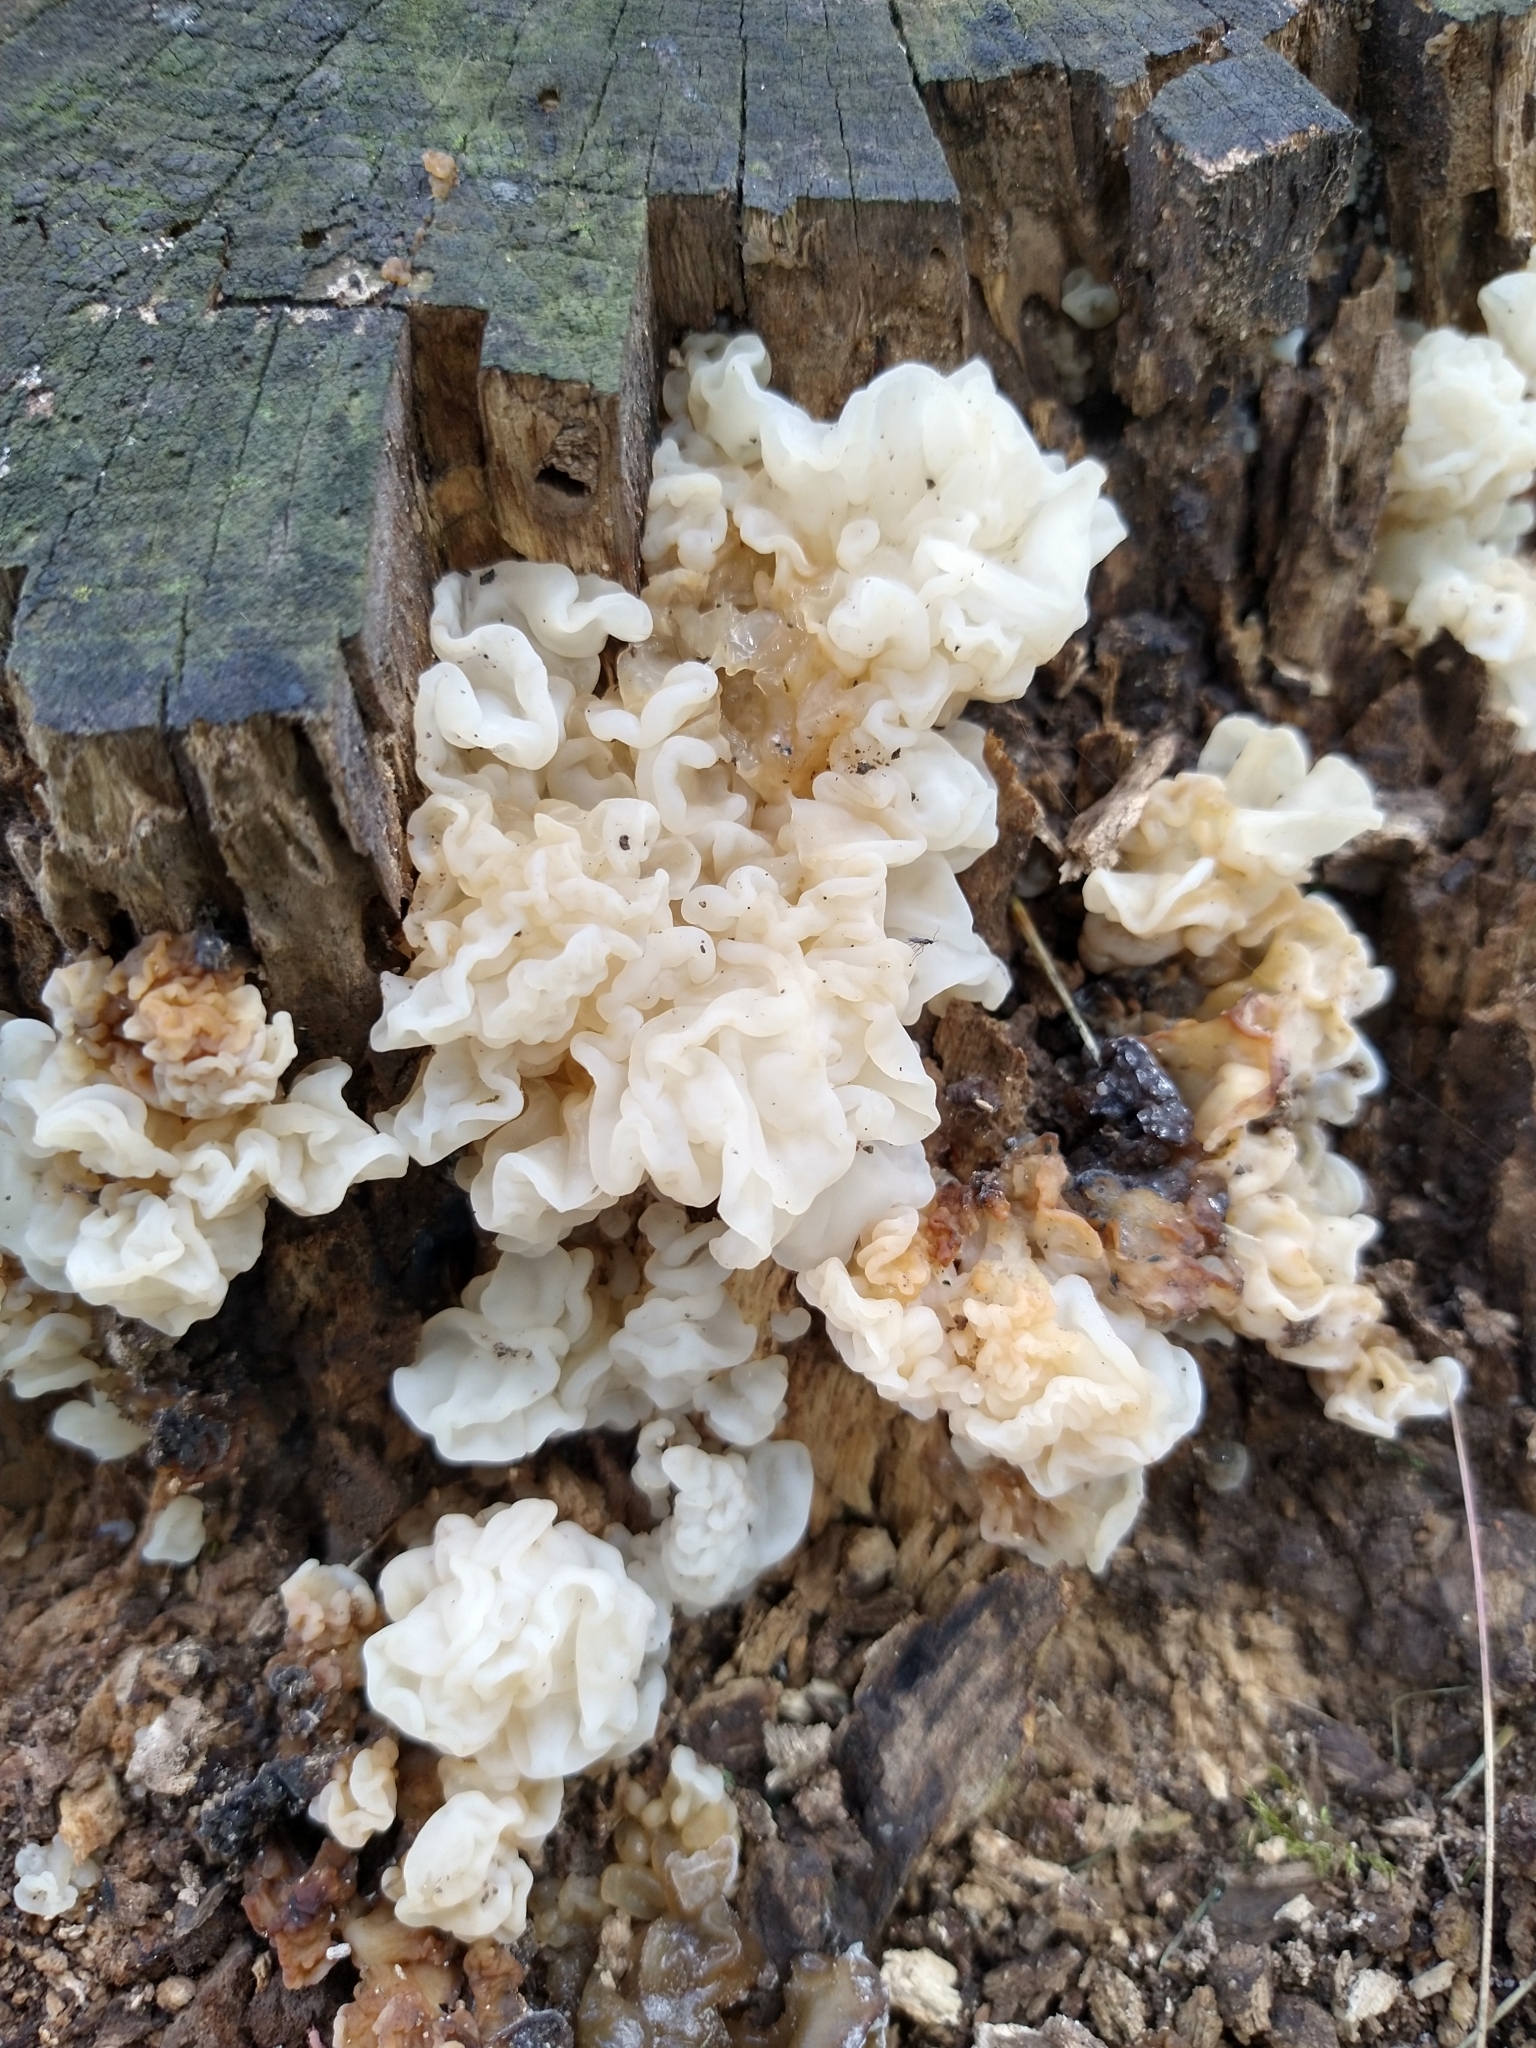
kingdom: Fungi
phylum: Basidiomycota
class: Agaricomycetes
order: Auriculariales
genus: Ductifera
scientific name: Ductifera pululahuana
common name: White jelly fungus
